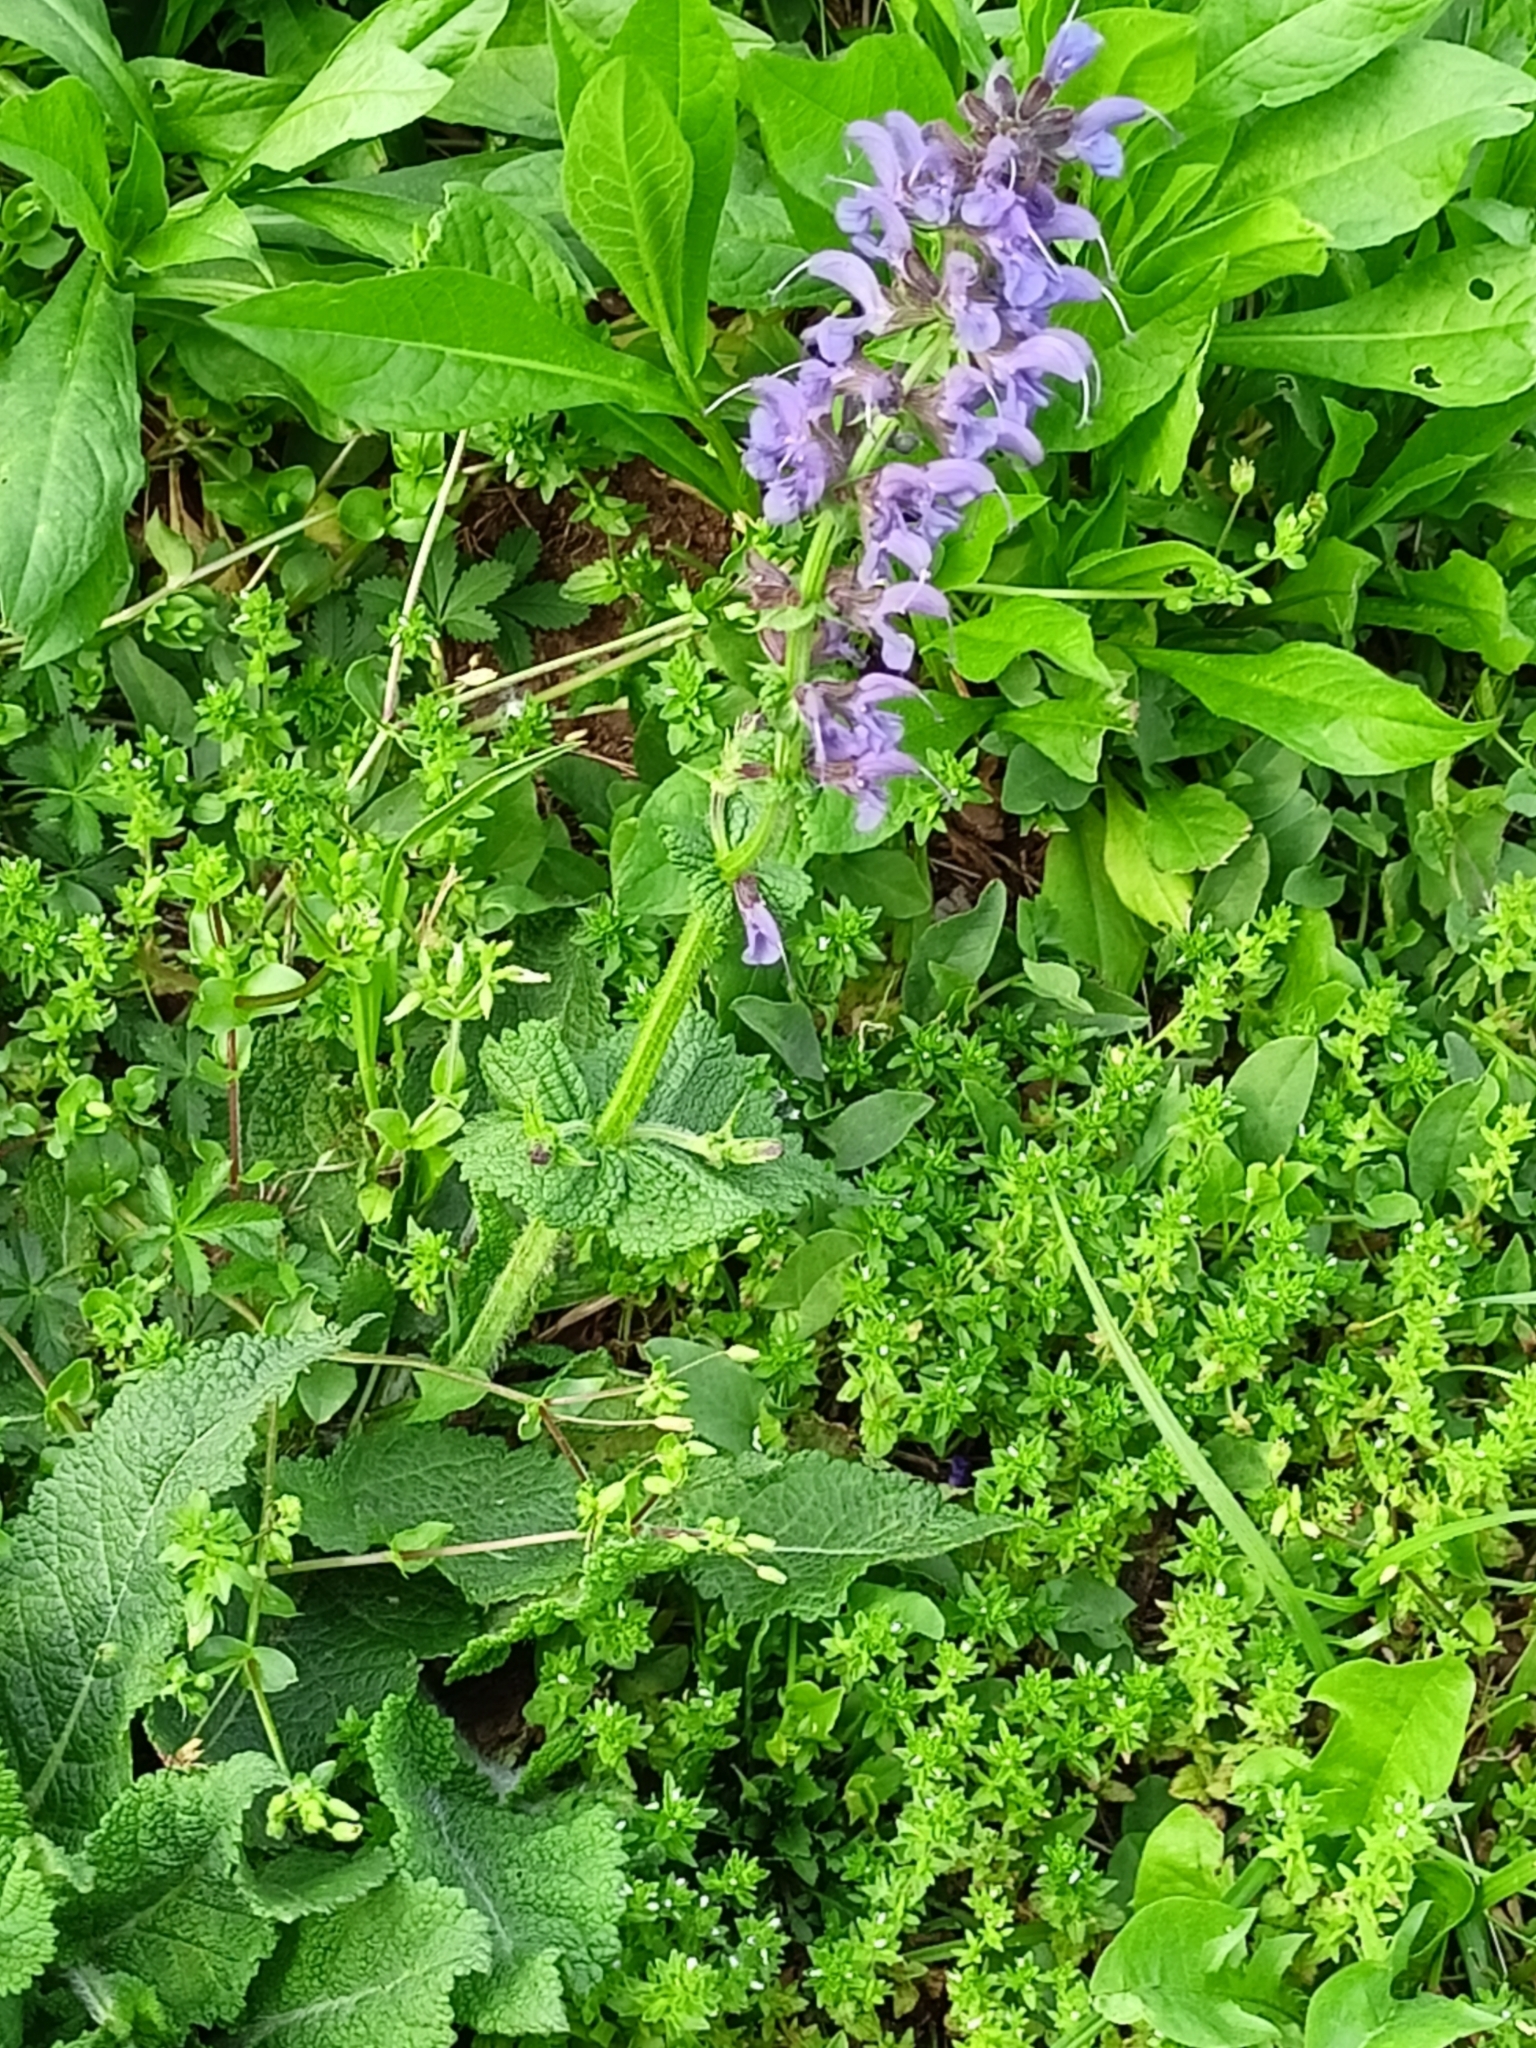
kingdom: Plantae
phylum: Tracheophyta
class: Magnoliopsida
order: Lamiales
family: Lamiaceae
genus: Salvia
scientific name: Salvia pratensis
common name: Meadow sage
